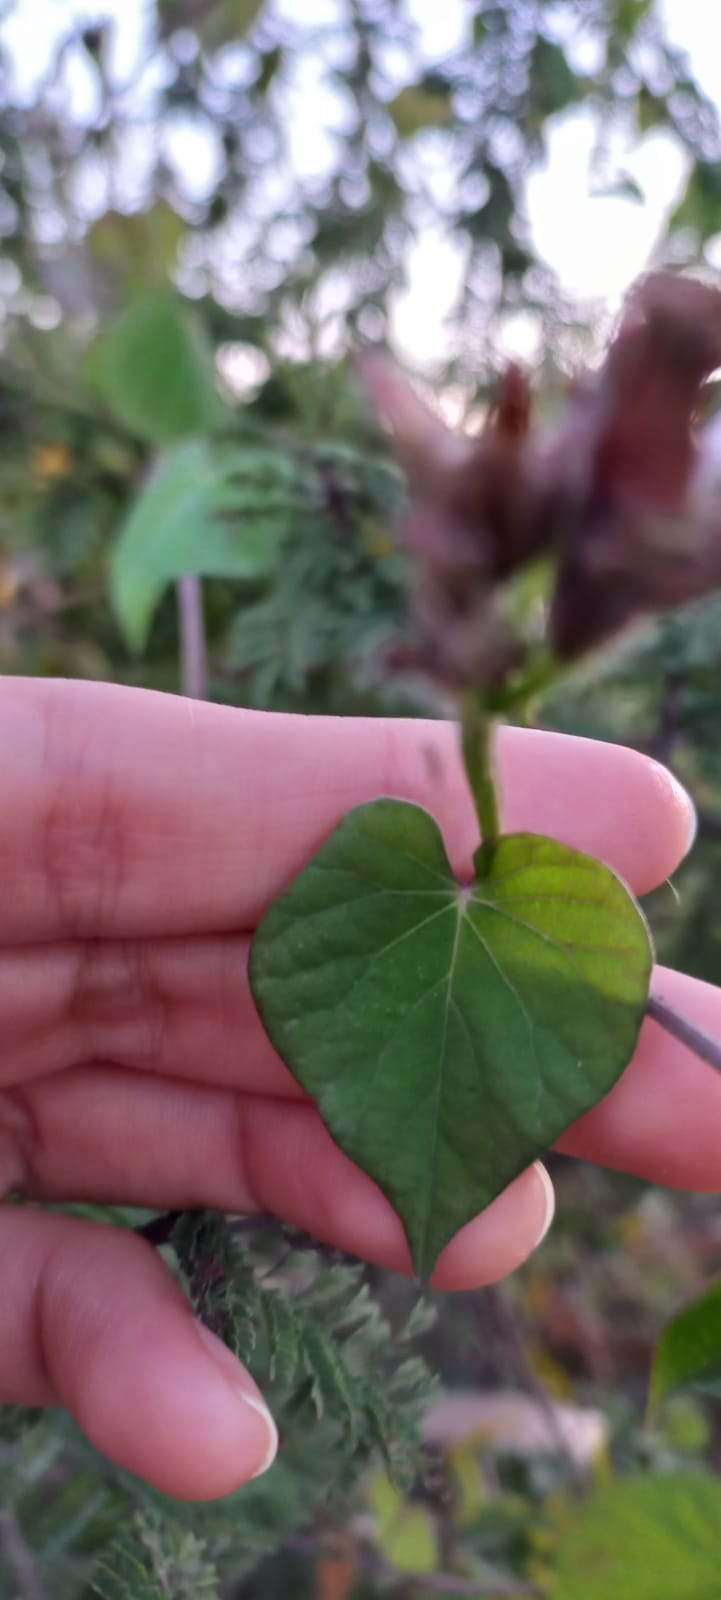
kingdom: Plantae
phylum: Tracheophyta
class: Magnoliopsida
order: Solanales
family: Convolvulaceae
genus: Ipomoea
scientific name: Ipomoea grandifolia
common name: Aiea morning glory
